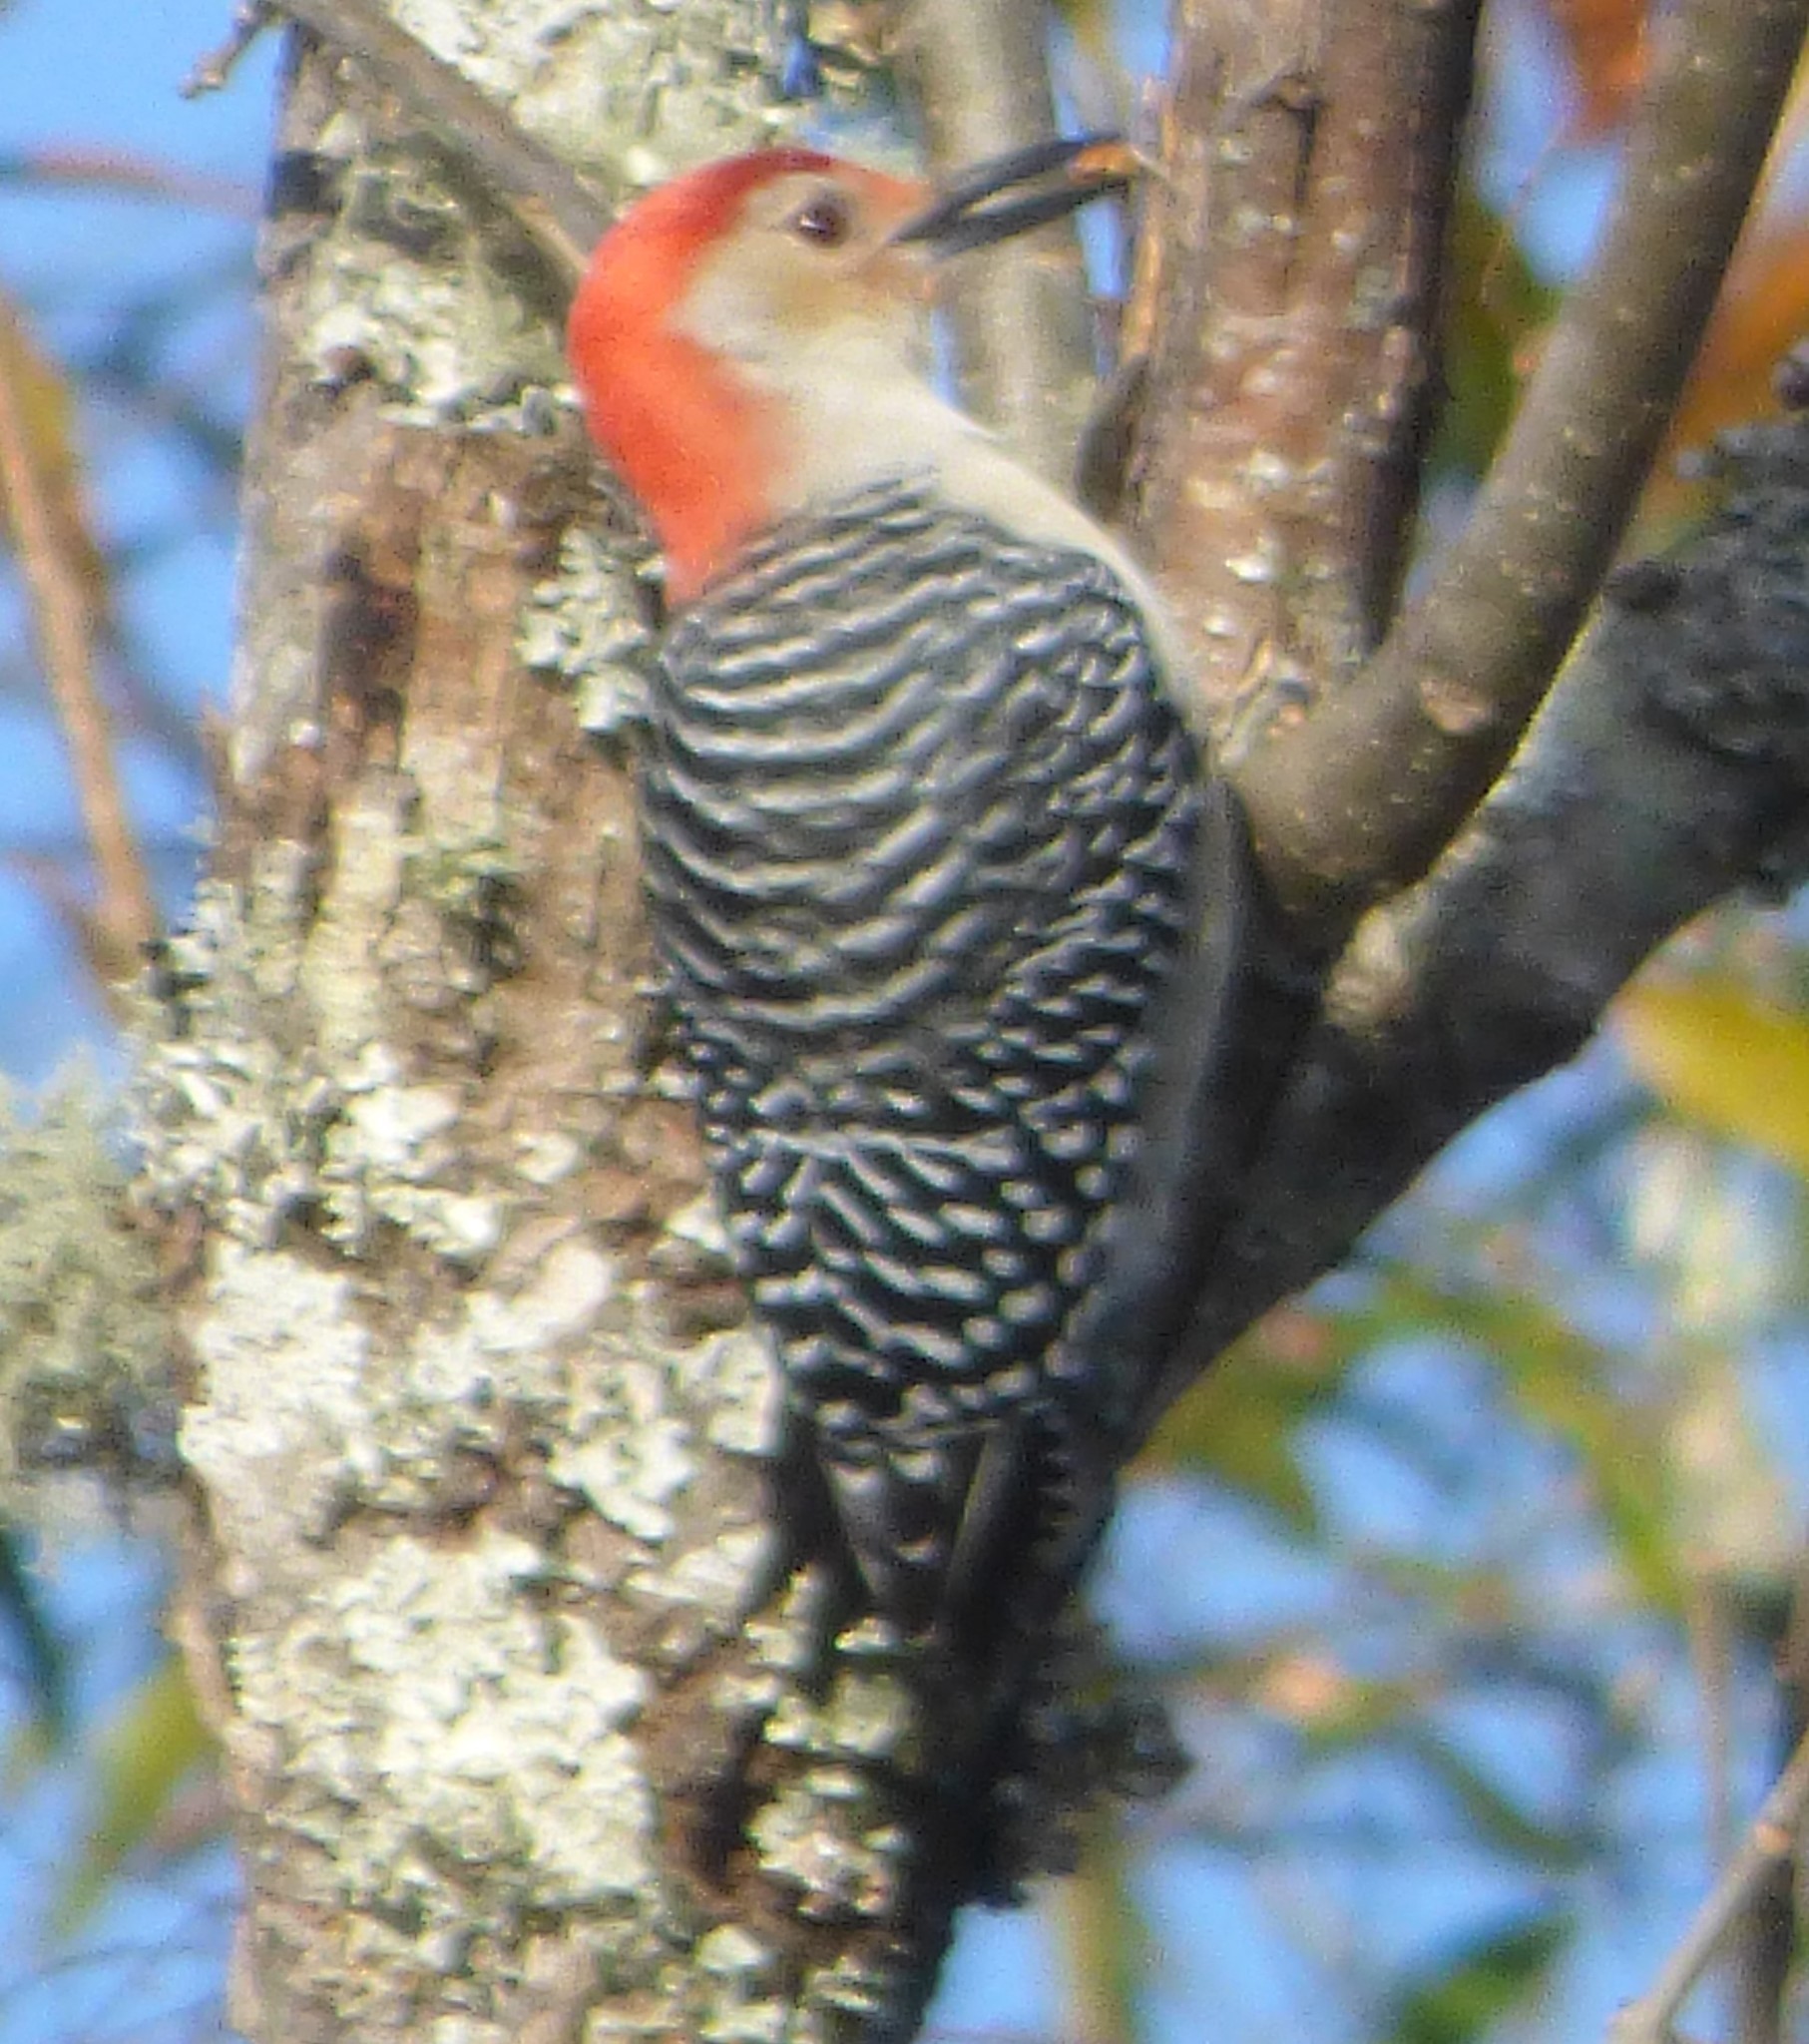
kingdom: Animalia
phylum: Chordata
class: Aves
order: Piciformes
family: Picidae
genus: Melanerpes
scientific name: Melanerpes carolinus
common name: Red-bellied woodpecker
